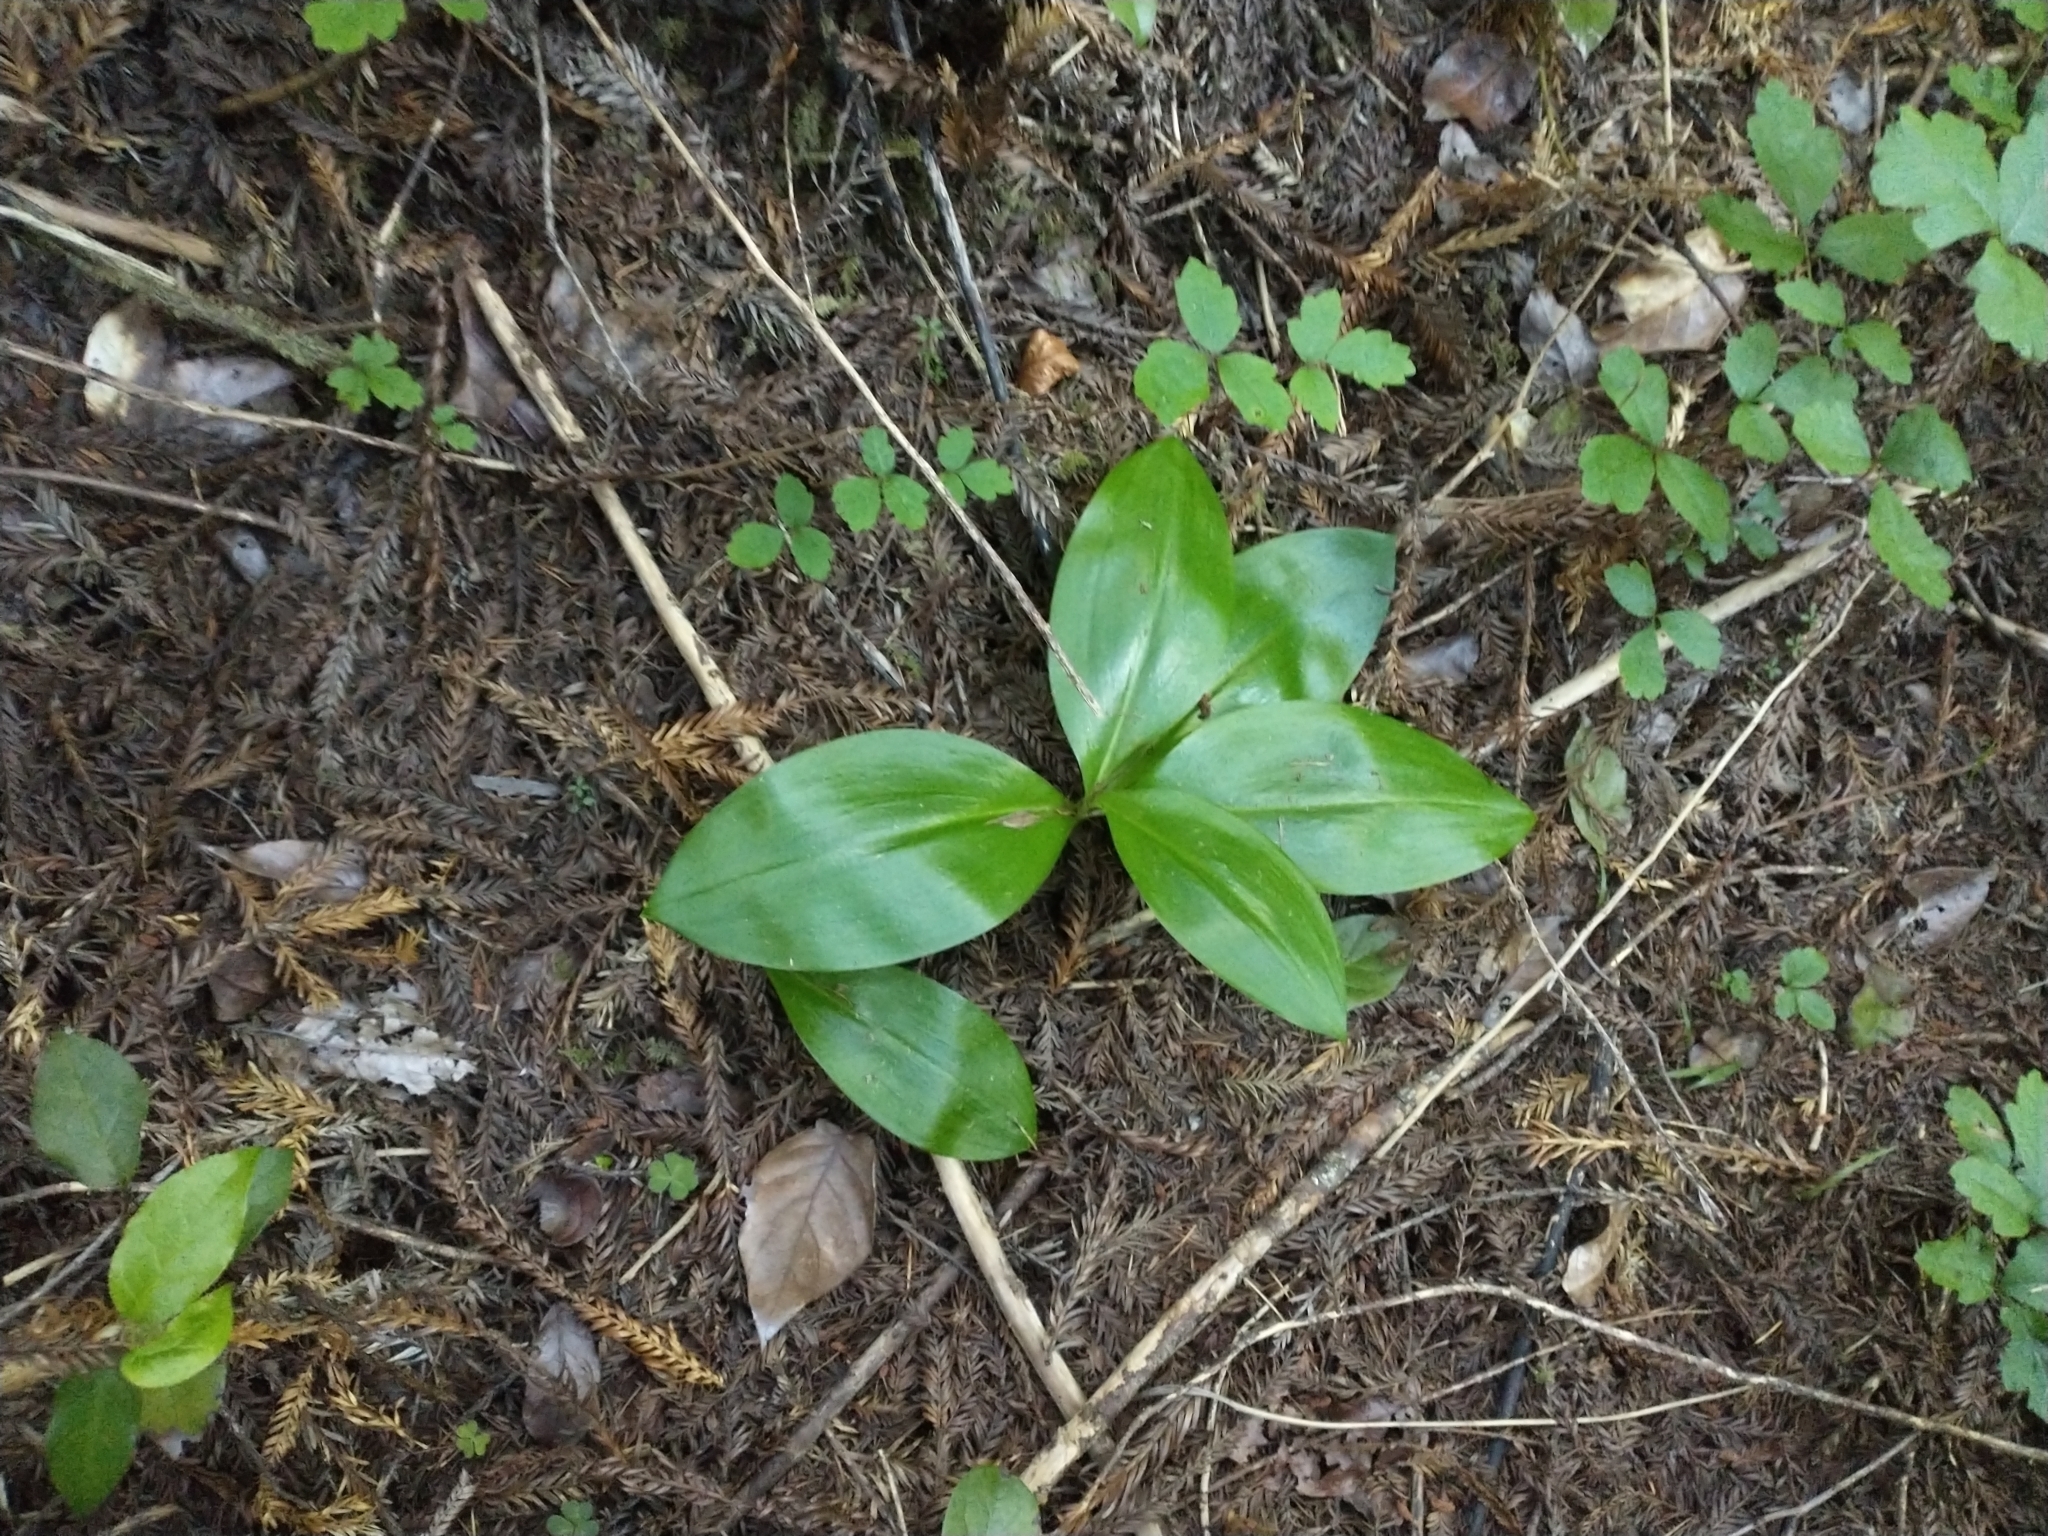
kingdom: Plantae
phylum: Tracheophyta
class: Liliopsida
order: Liliales
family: Liliaceae
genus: Clintonia
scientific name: Clintonia andrewsiana
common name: Red clintonia
